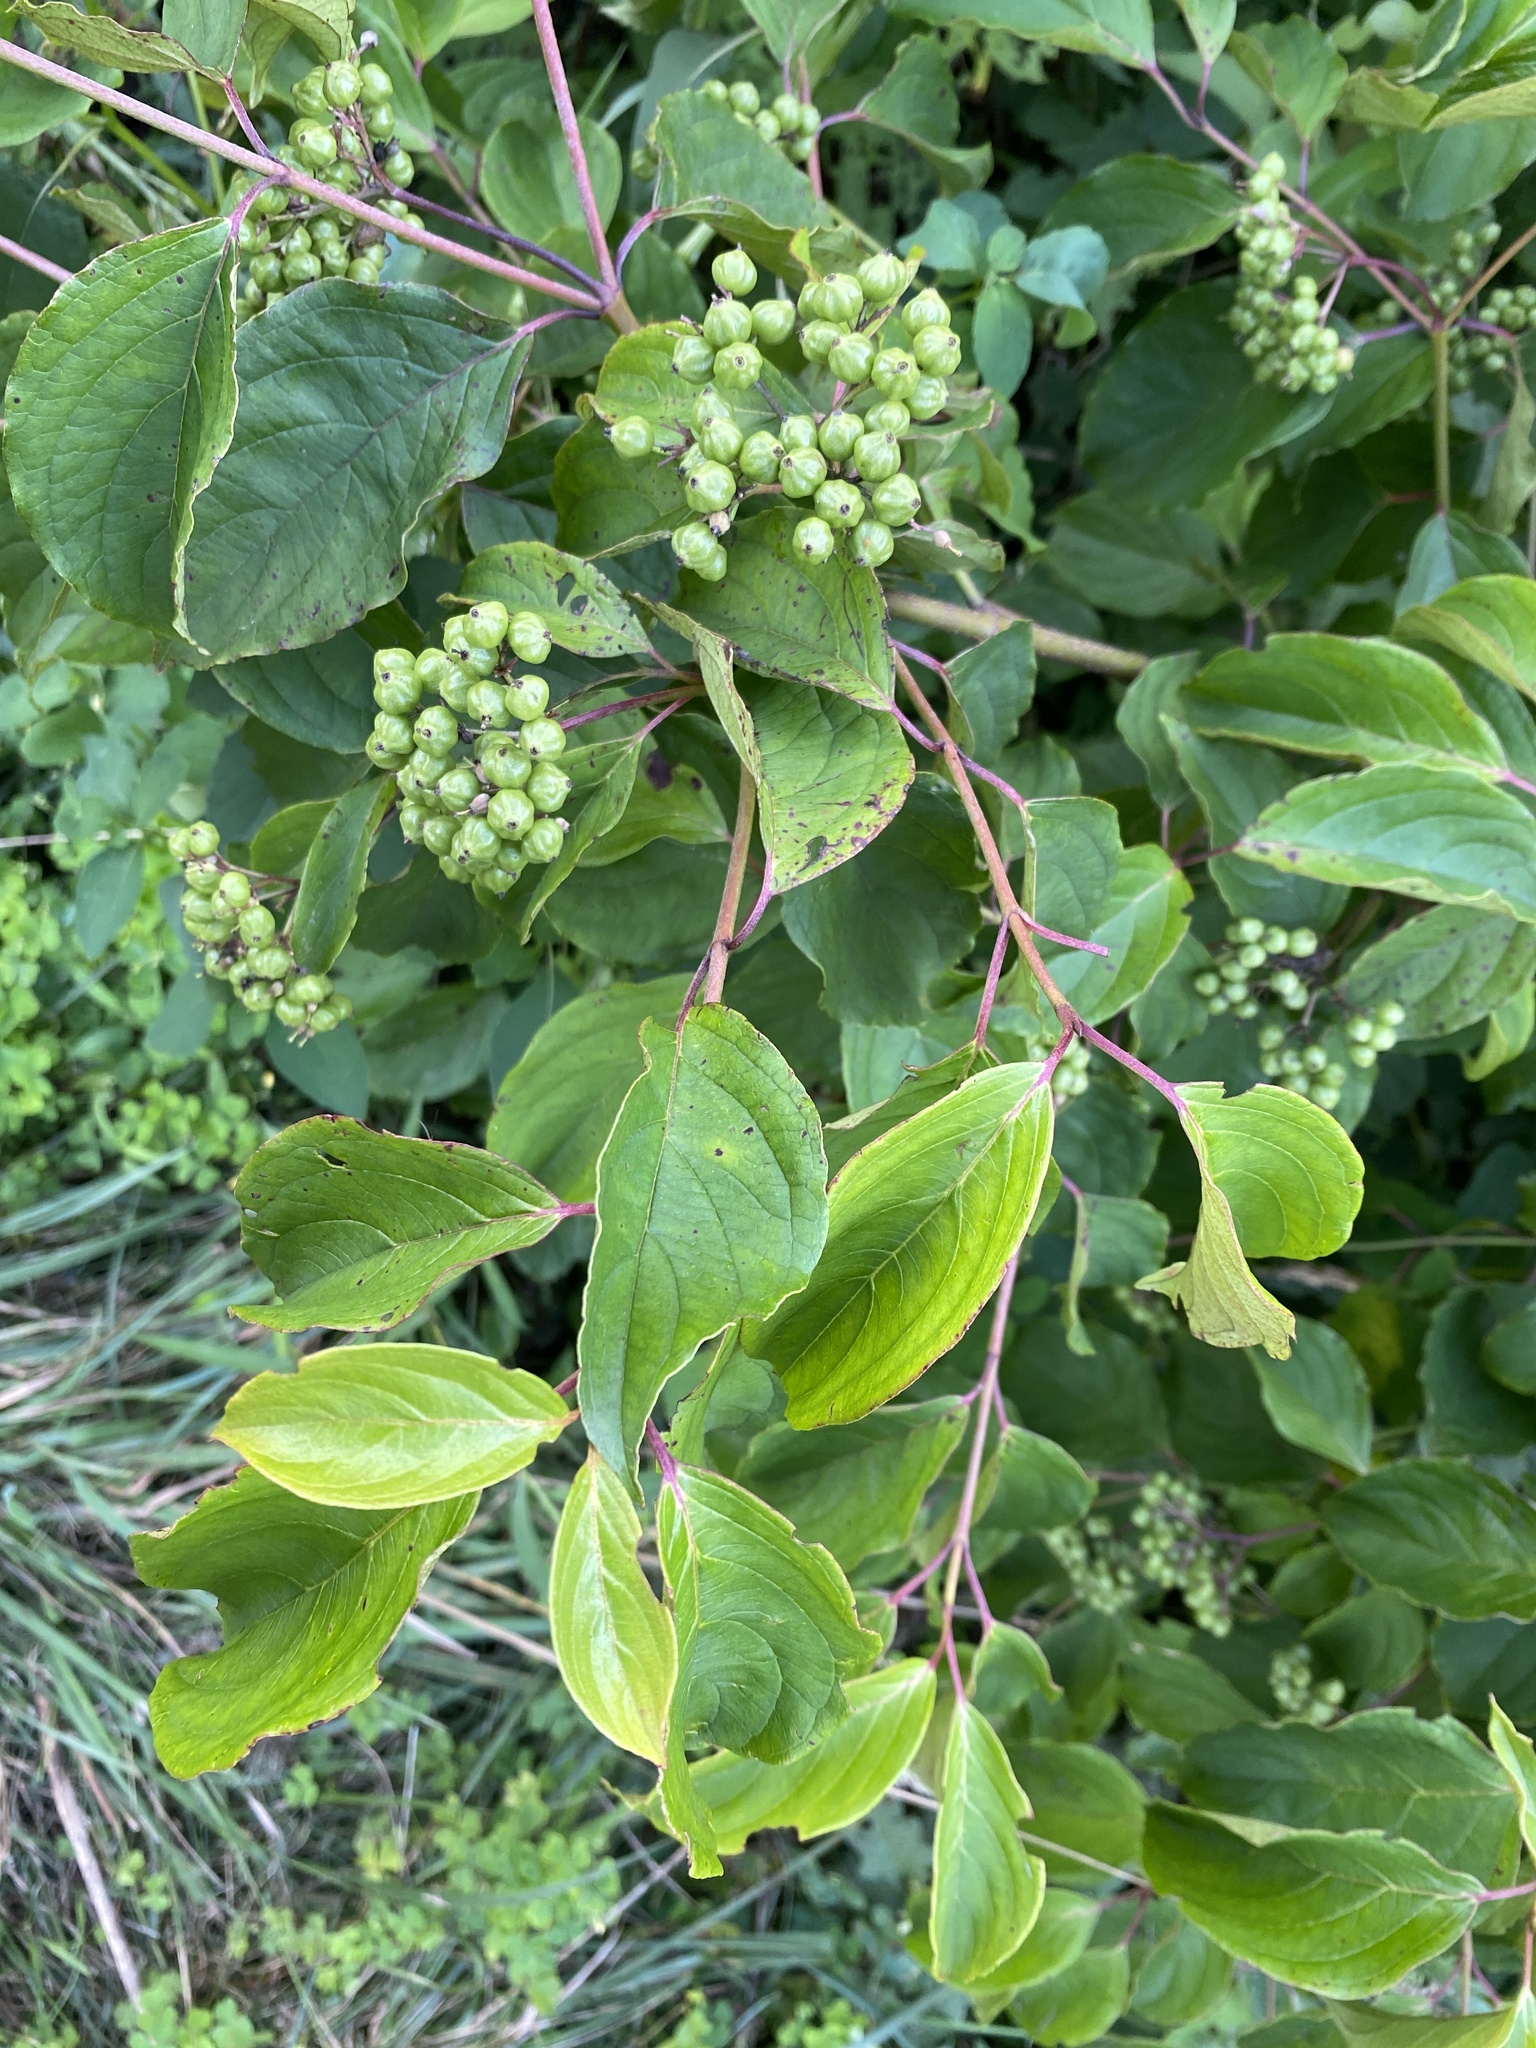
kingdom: Plantae
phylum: Tracheophyta
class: Magnoliopsida
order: Cornales
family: Cornaceae
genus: Cornus
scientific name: Cornus amomum
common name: Silky dogwood
